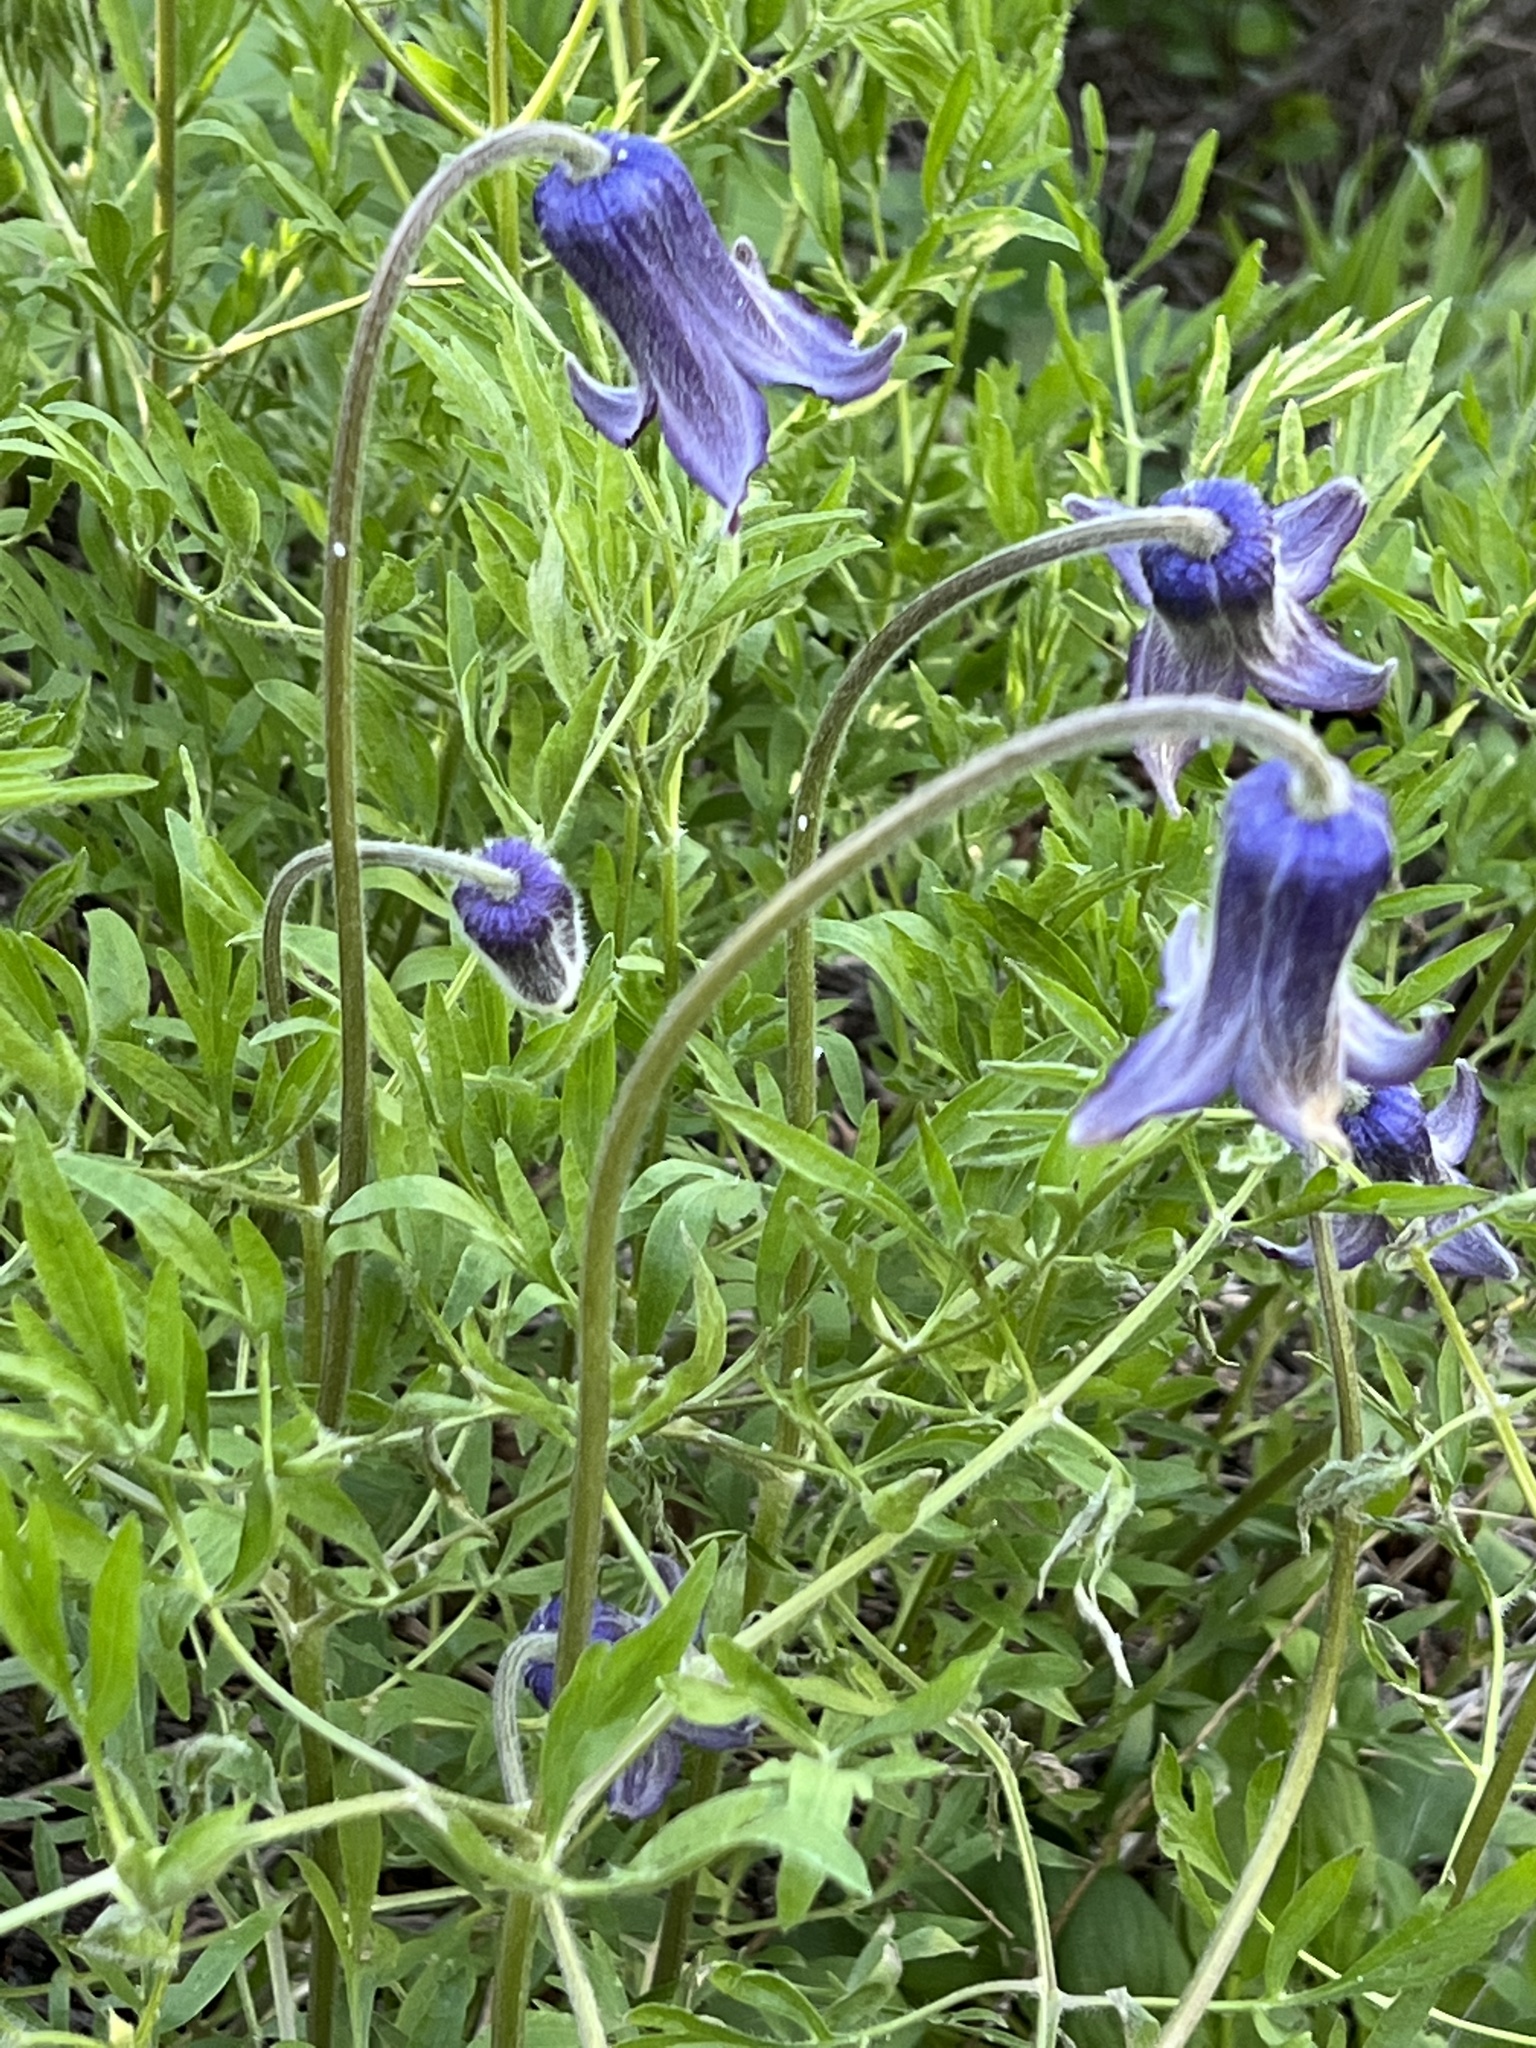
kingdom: Plantae
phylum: Tracheophyta
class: Magnoliopsida
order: Ranunculales
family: Ranunculaceae
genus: Clematis
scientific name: Clematis hirsutissima
